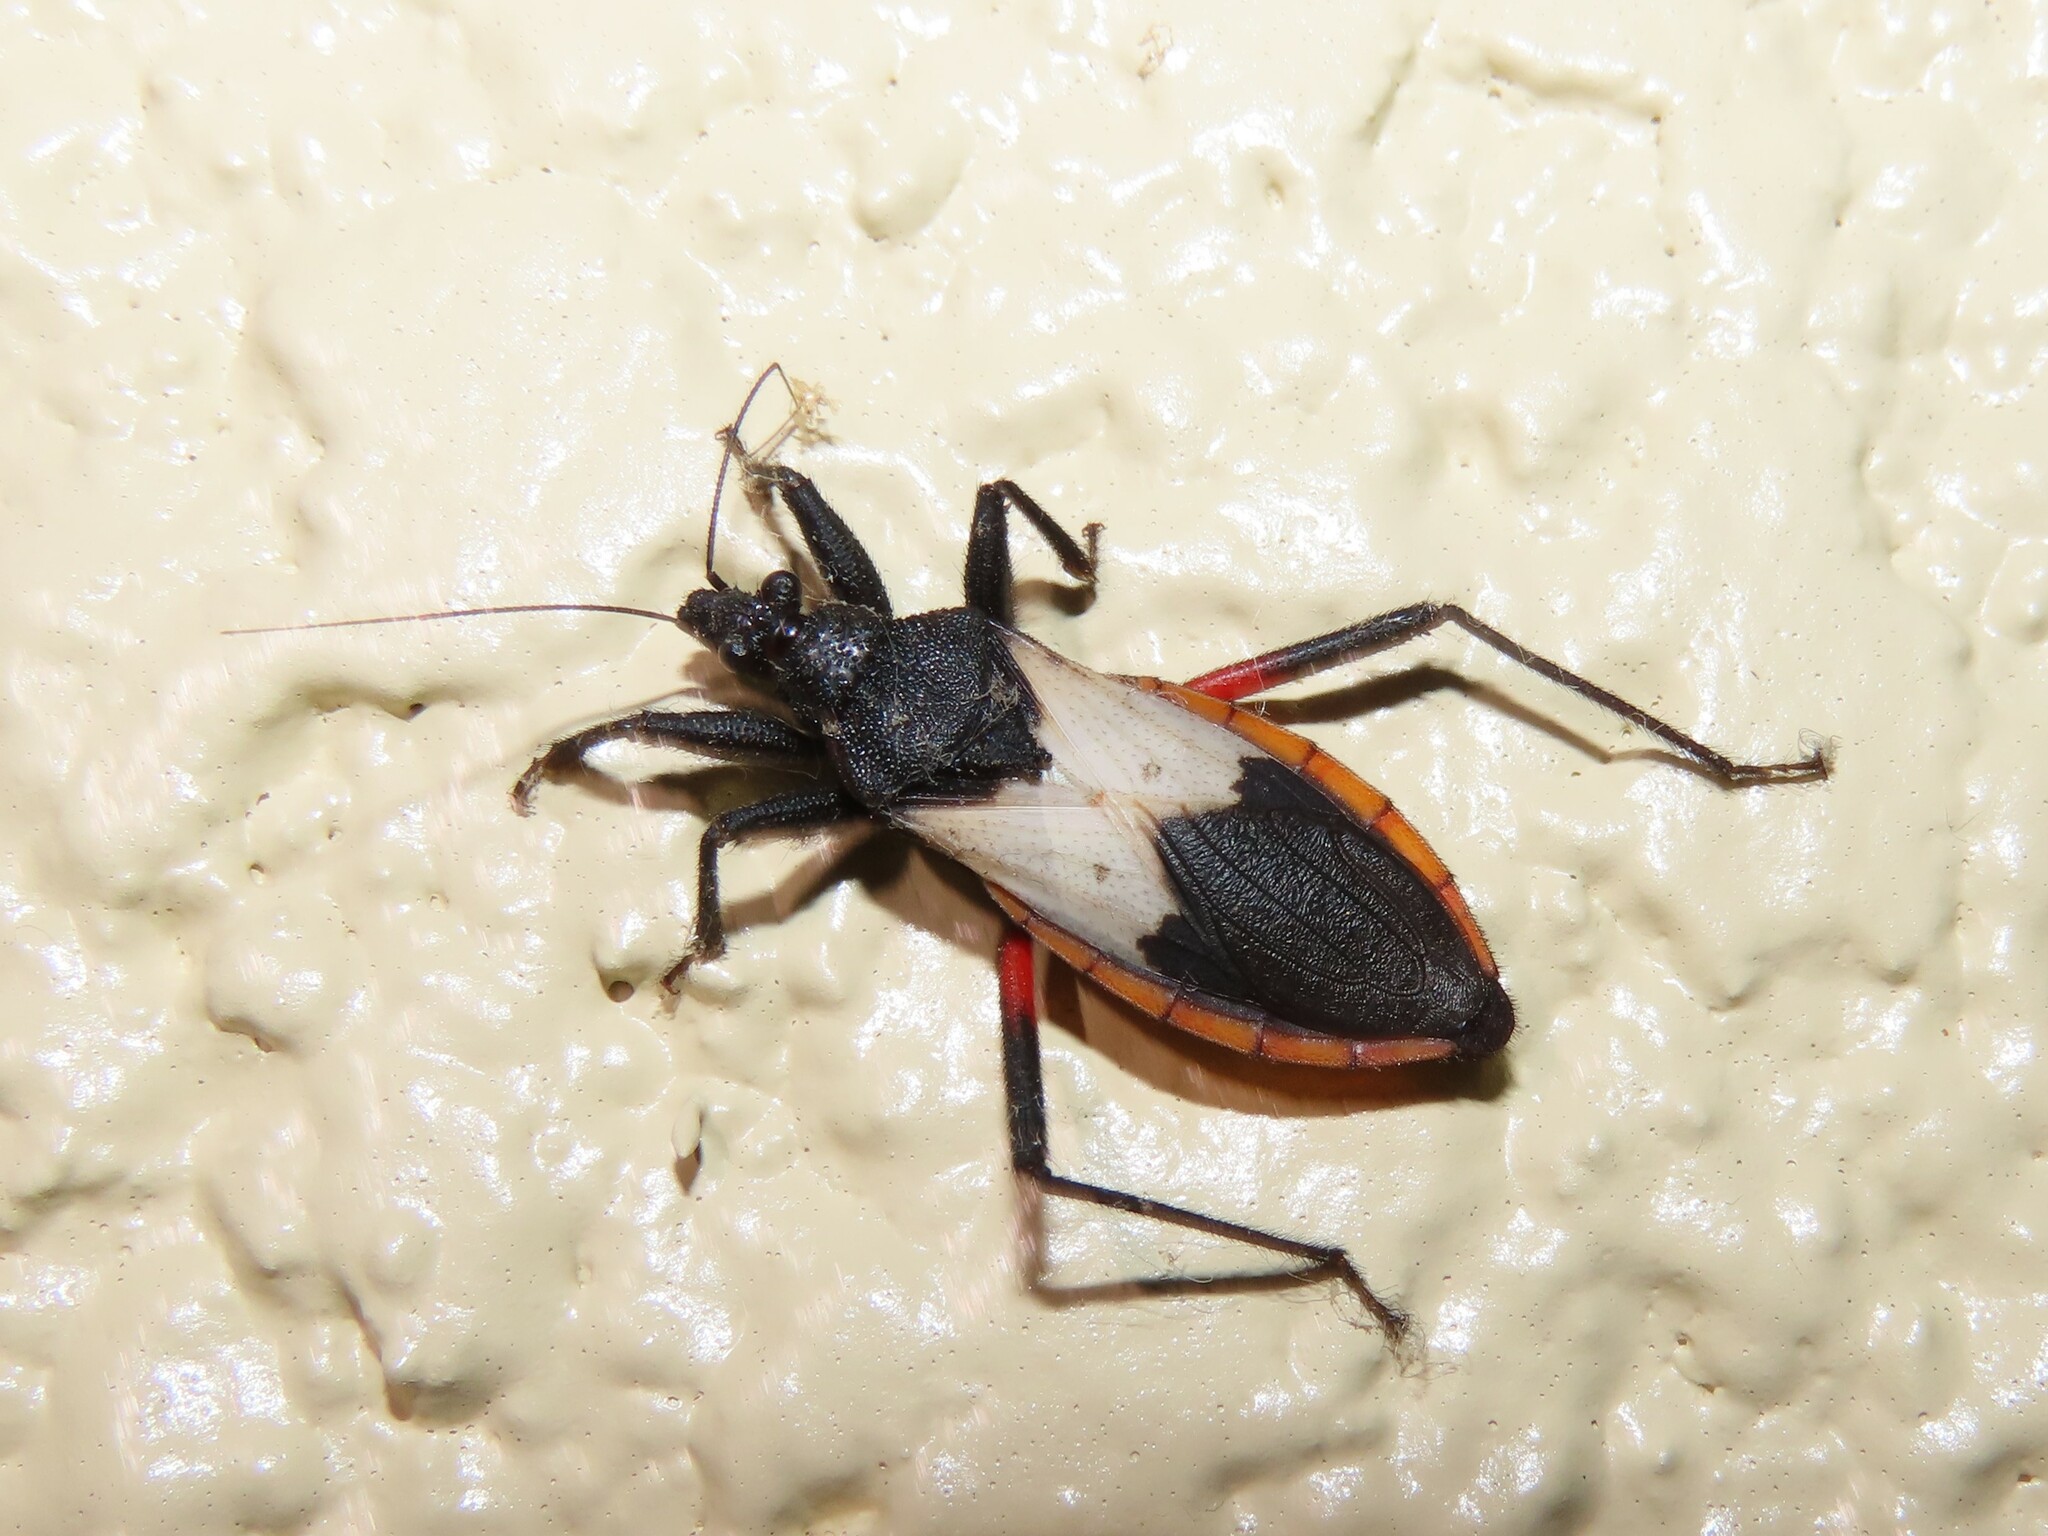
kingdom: Animalia
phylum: Arthropoda
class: Insecta
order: Hemiptera
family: Reduviidae
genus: Microtomus
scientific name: Microtomus purcis
